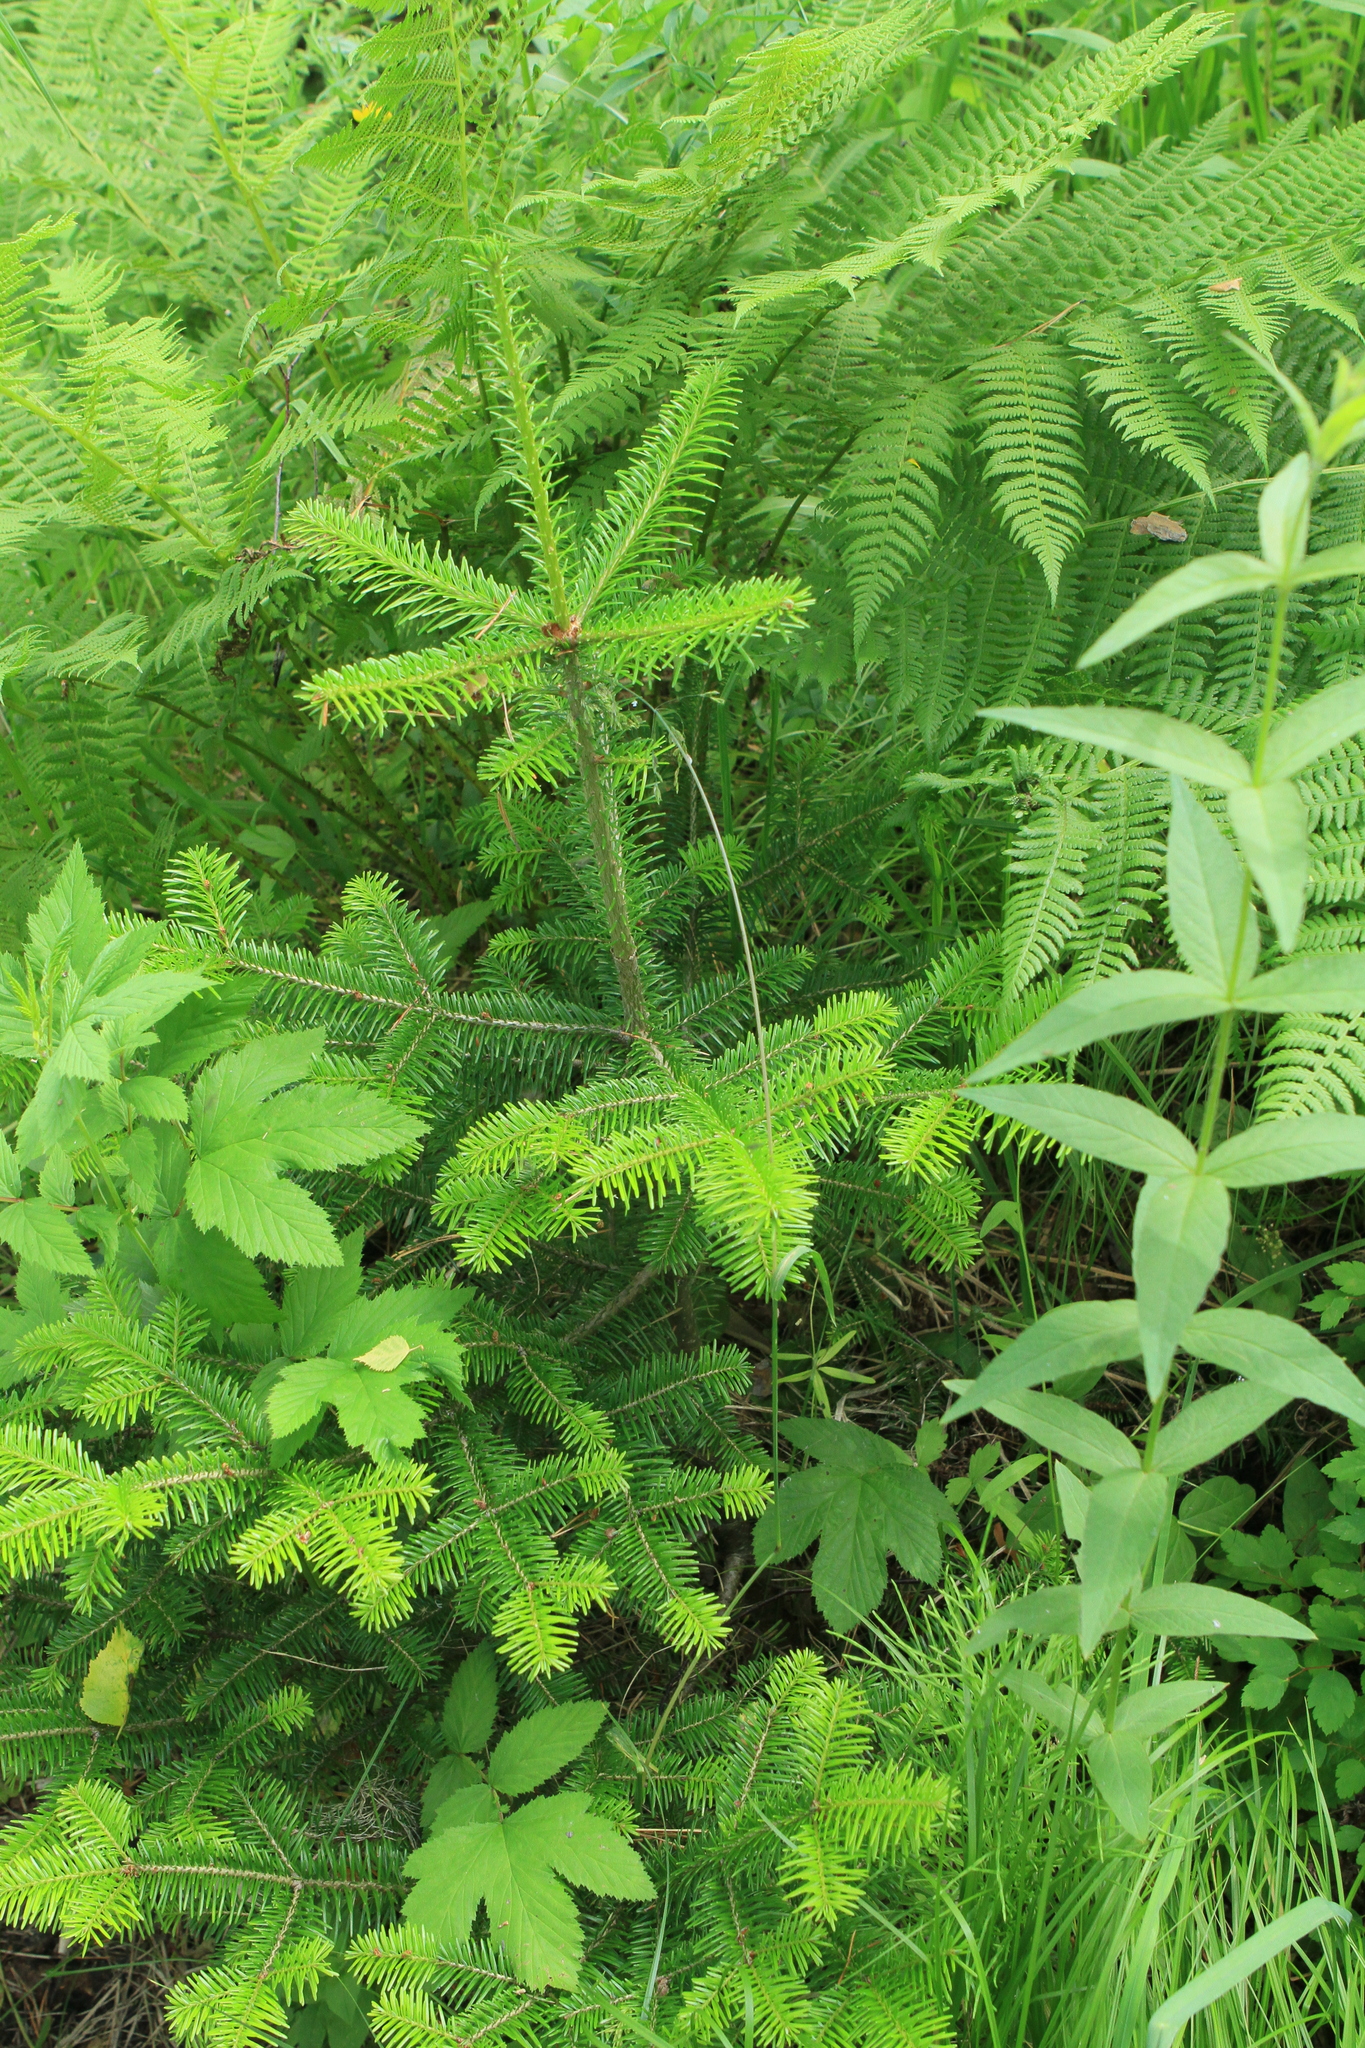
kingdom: Plantae
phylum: Tracheophyta
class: Pinopsida
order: Pinales
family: Pinaceae
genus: Abies
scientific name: Abies sibirica
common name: Siberian fir
